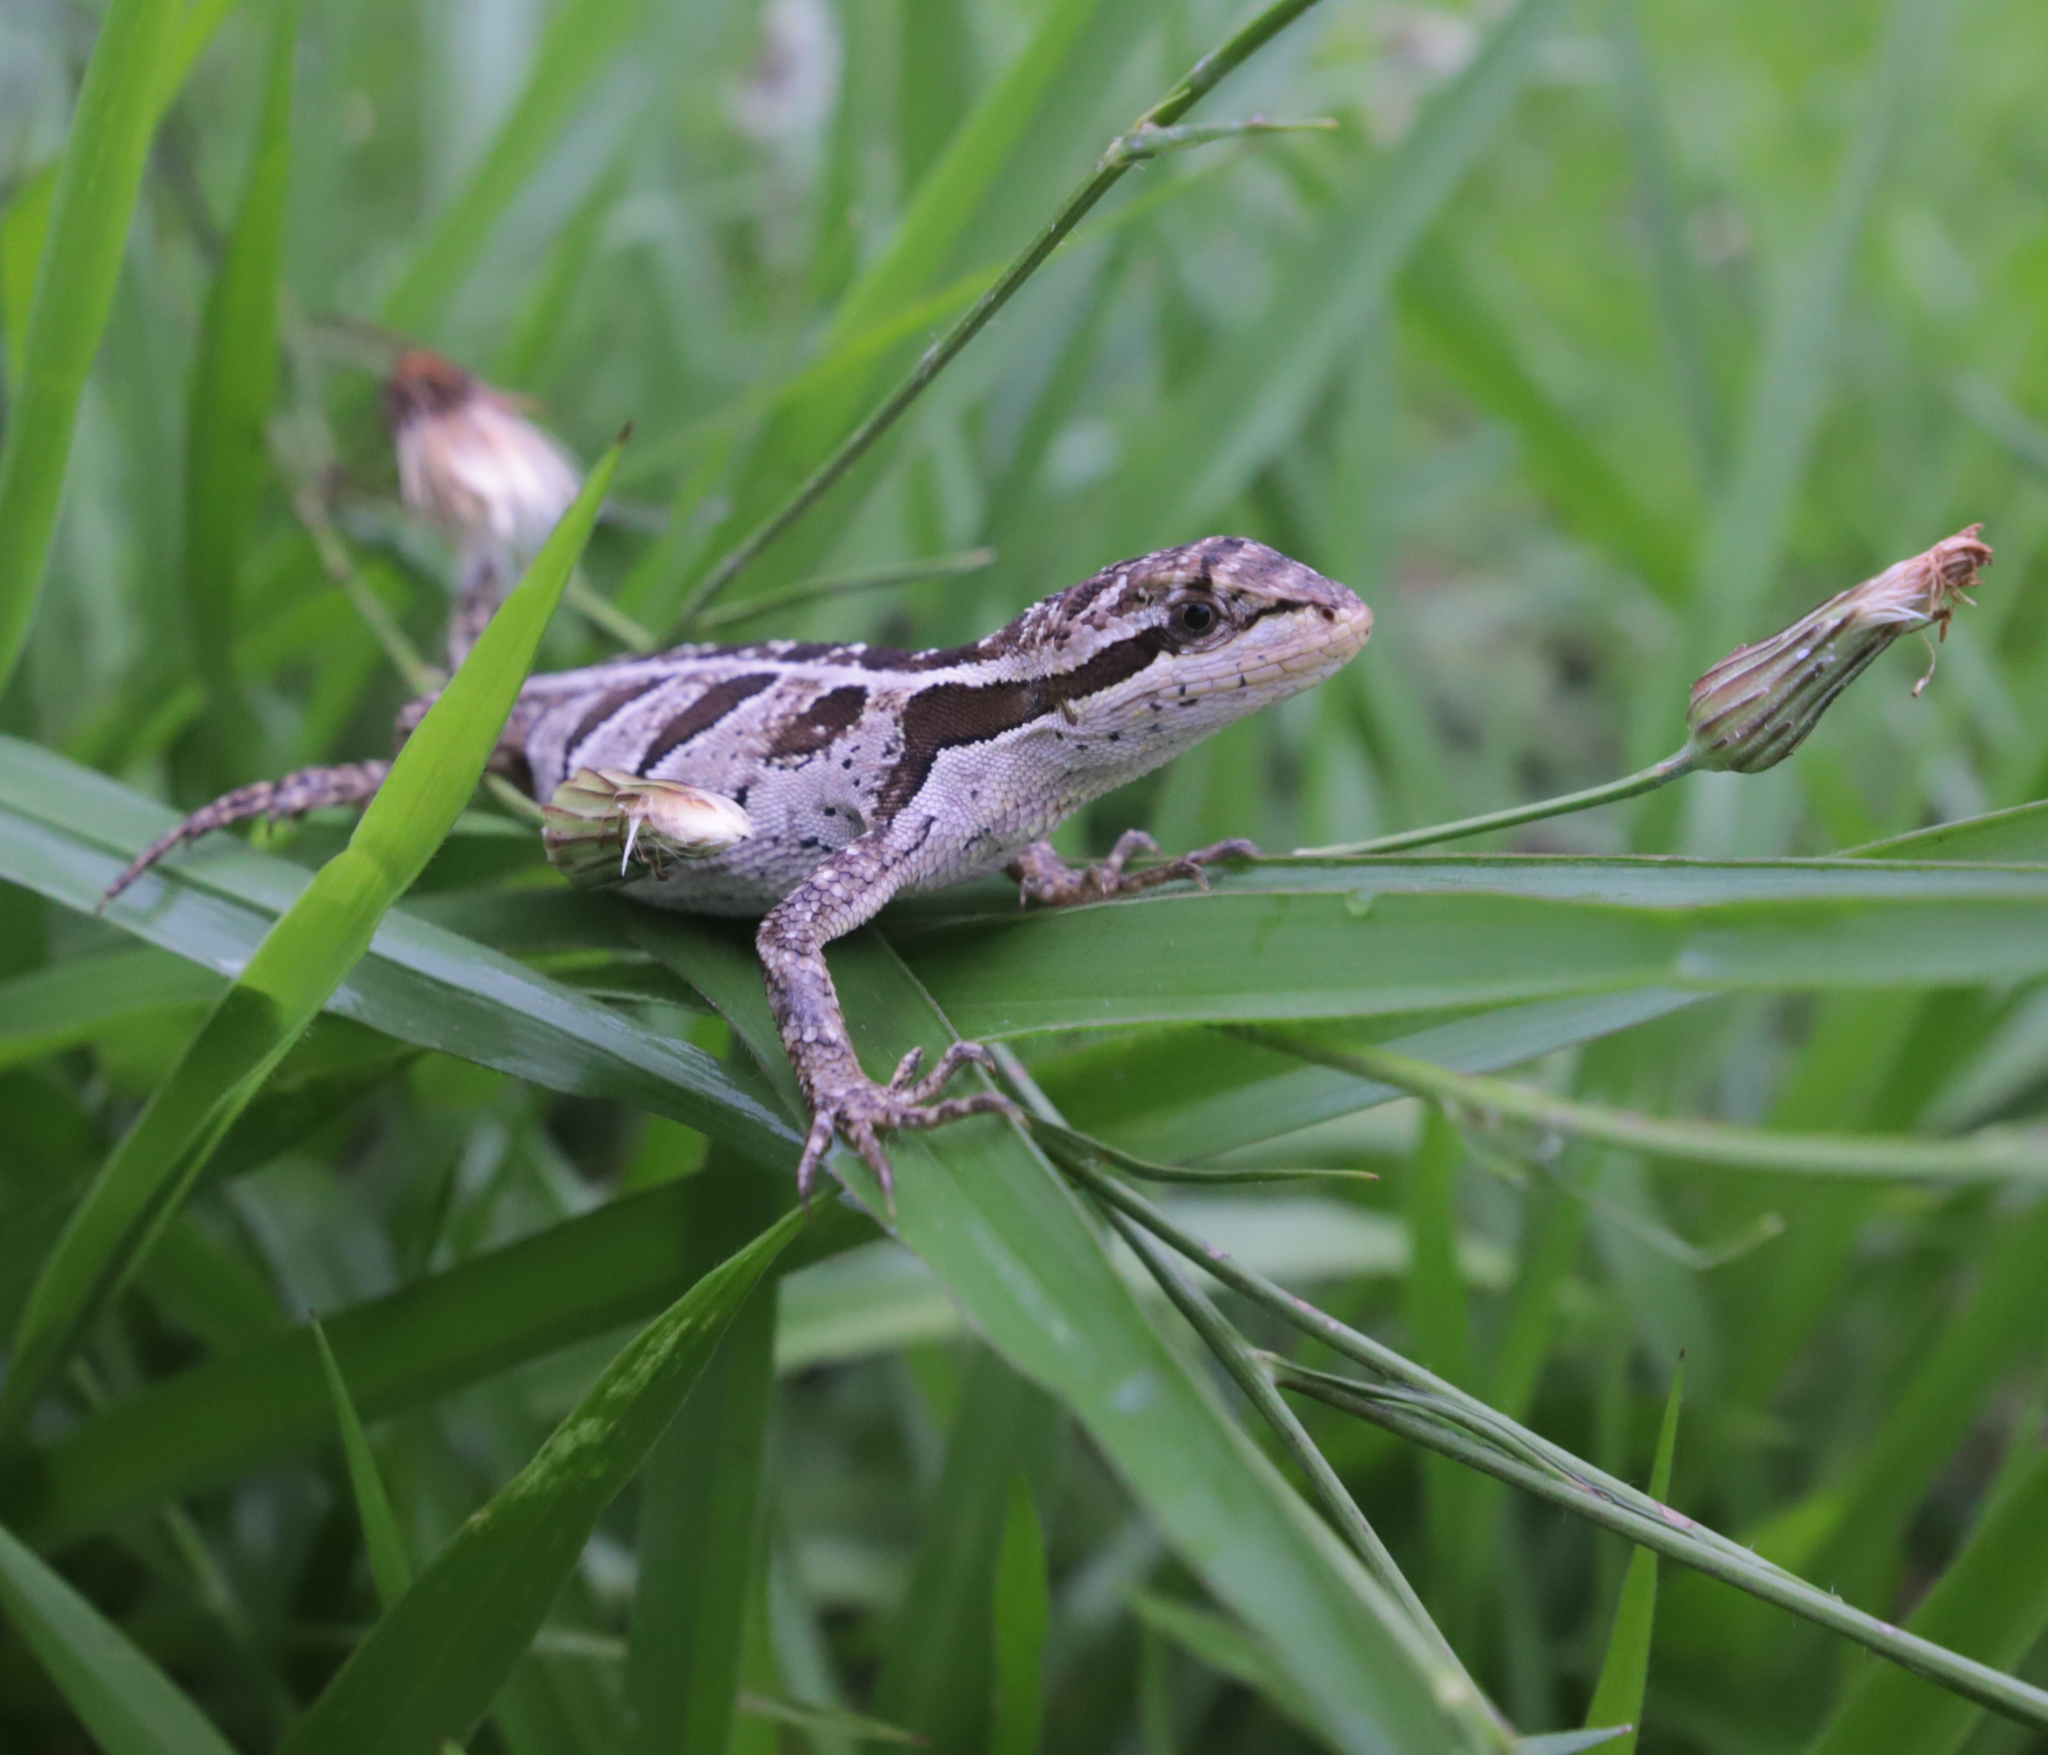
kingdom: Animalia
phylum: Chordata
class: Squamata
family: Leiosauridae
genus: Enyalius
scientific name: Enyalius bilineatus
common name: Two-lined fathead anole
